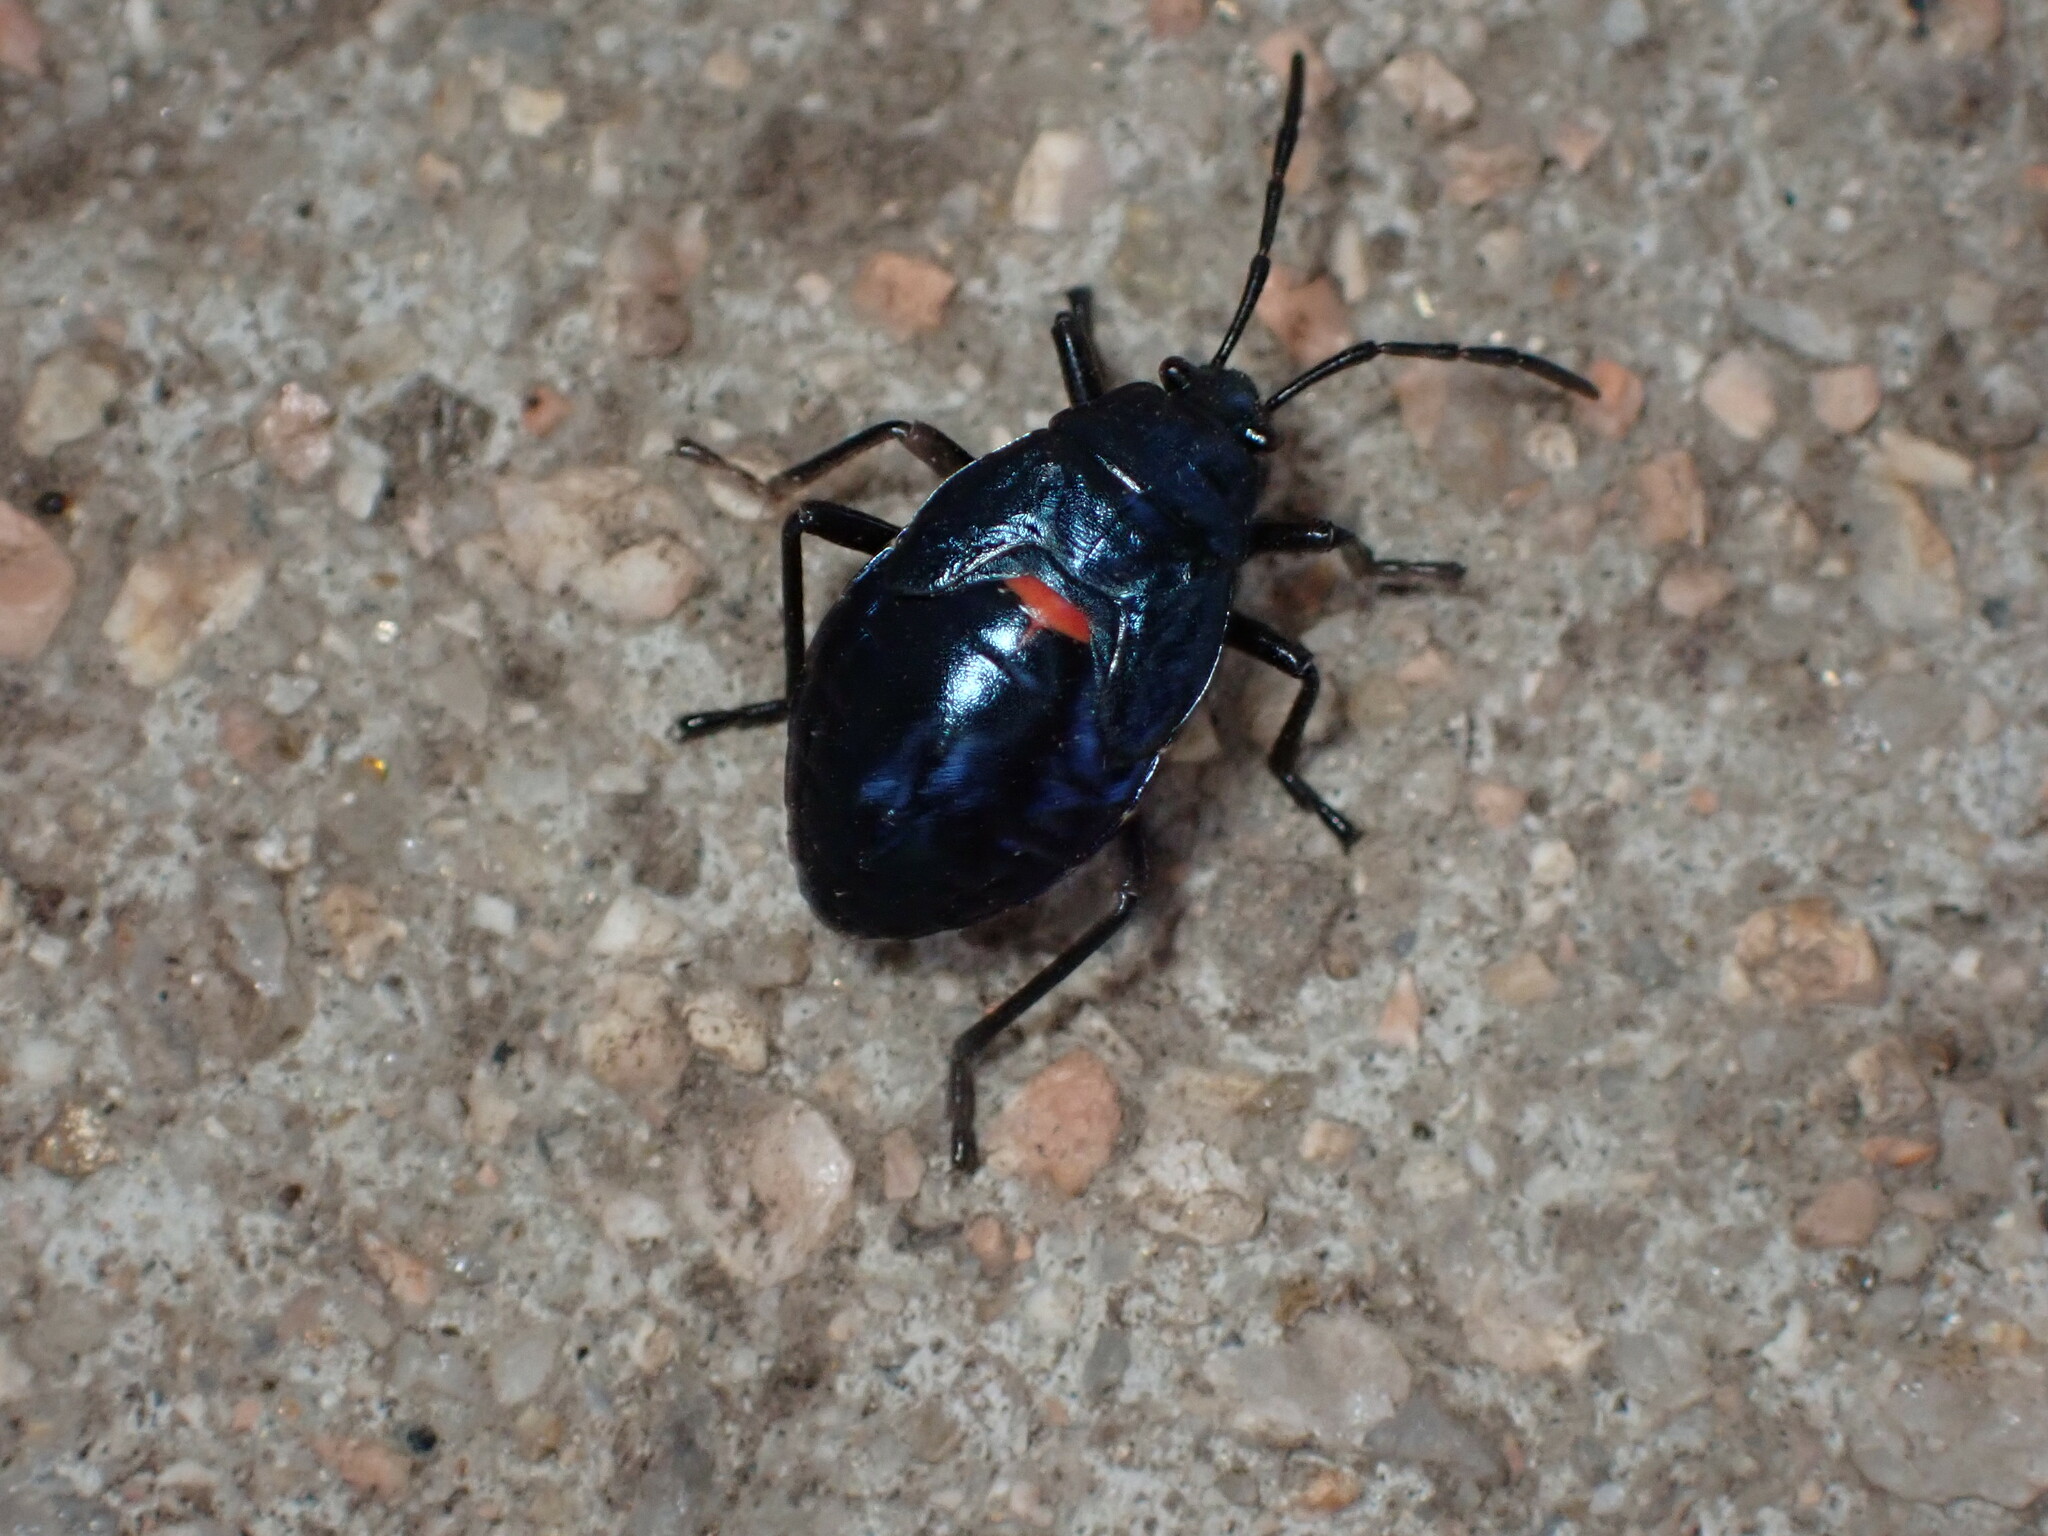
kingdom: Animalia
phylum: Arthropoda
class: Insecta
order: Hemiptera
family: Largidae
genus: Largus
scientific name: Largus californicus
